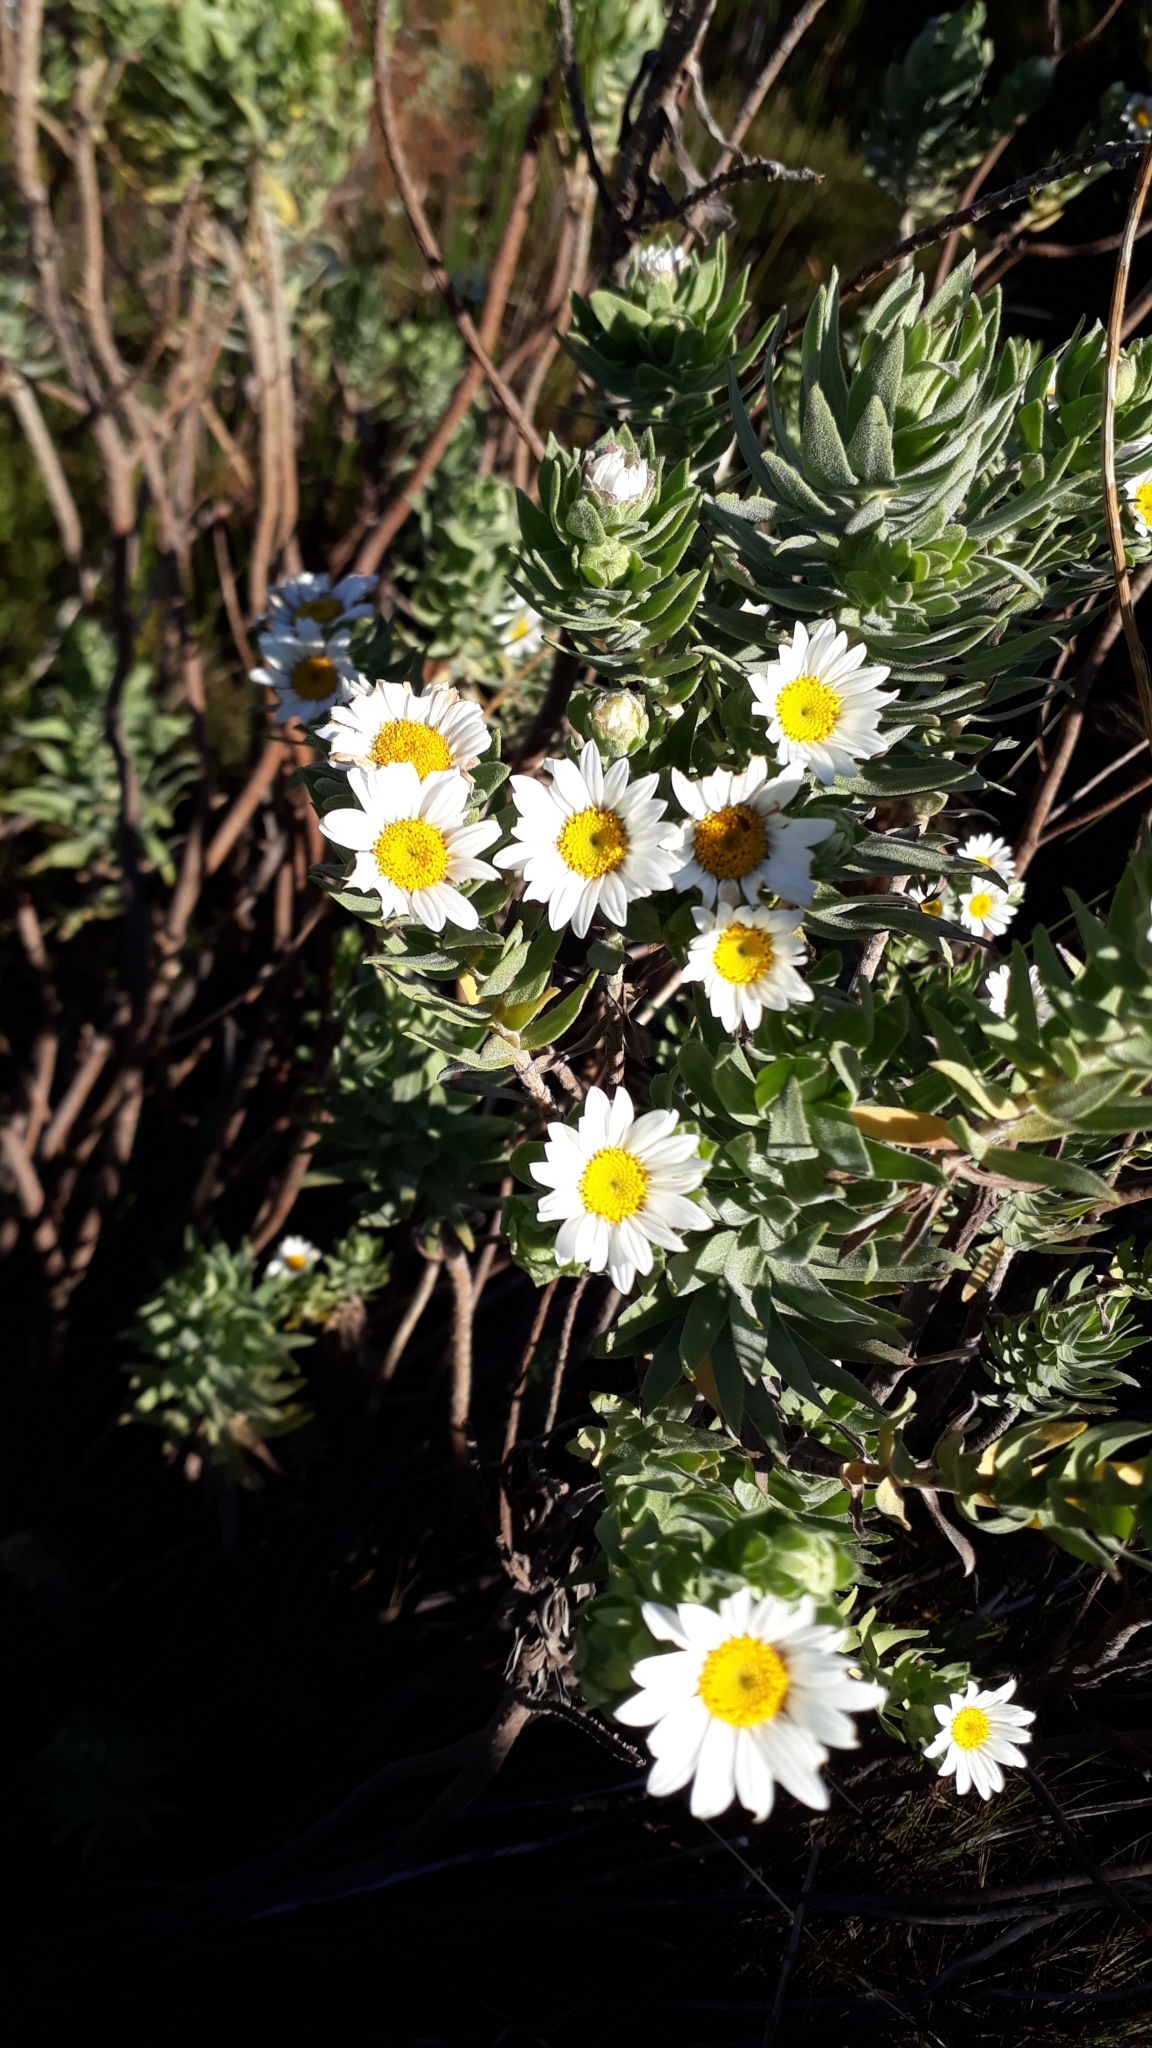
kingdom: Plantae
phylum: Tracheophyta
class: Magnoliopsida
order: Asterales
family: Asteraceae
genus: Osmitopsis
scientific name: Osmitopsis asteriscoides
